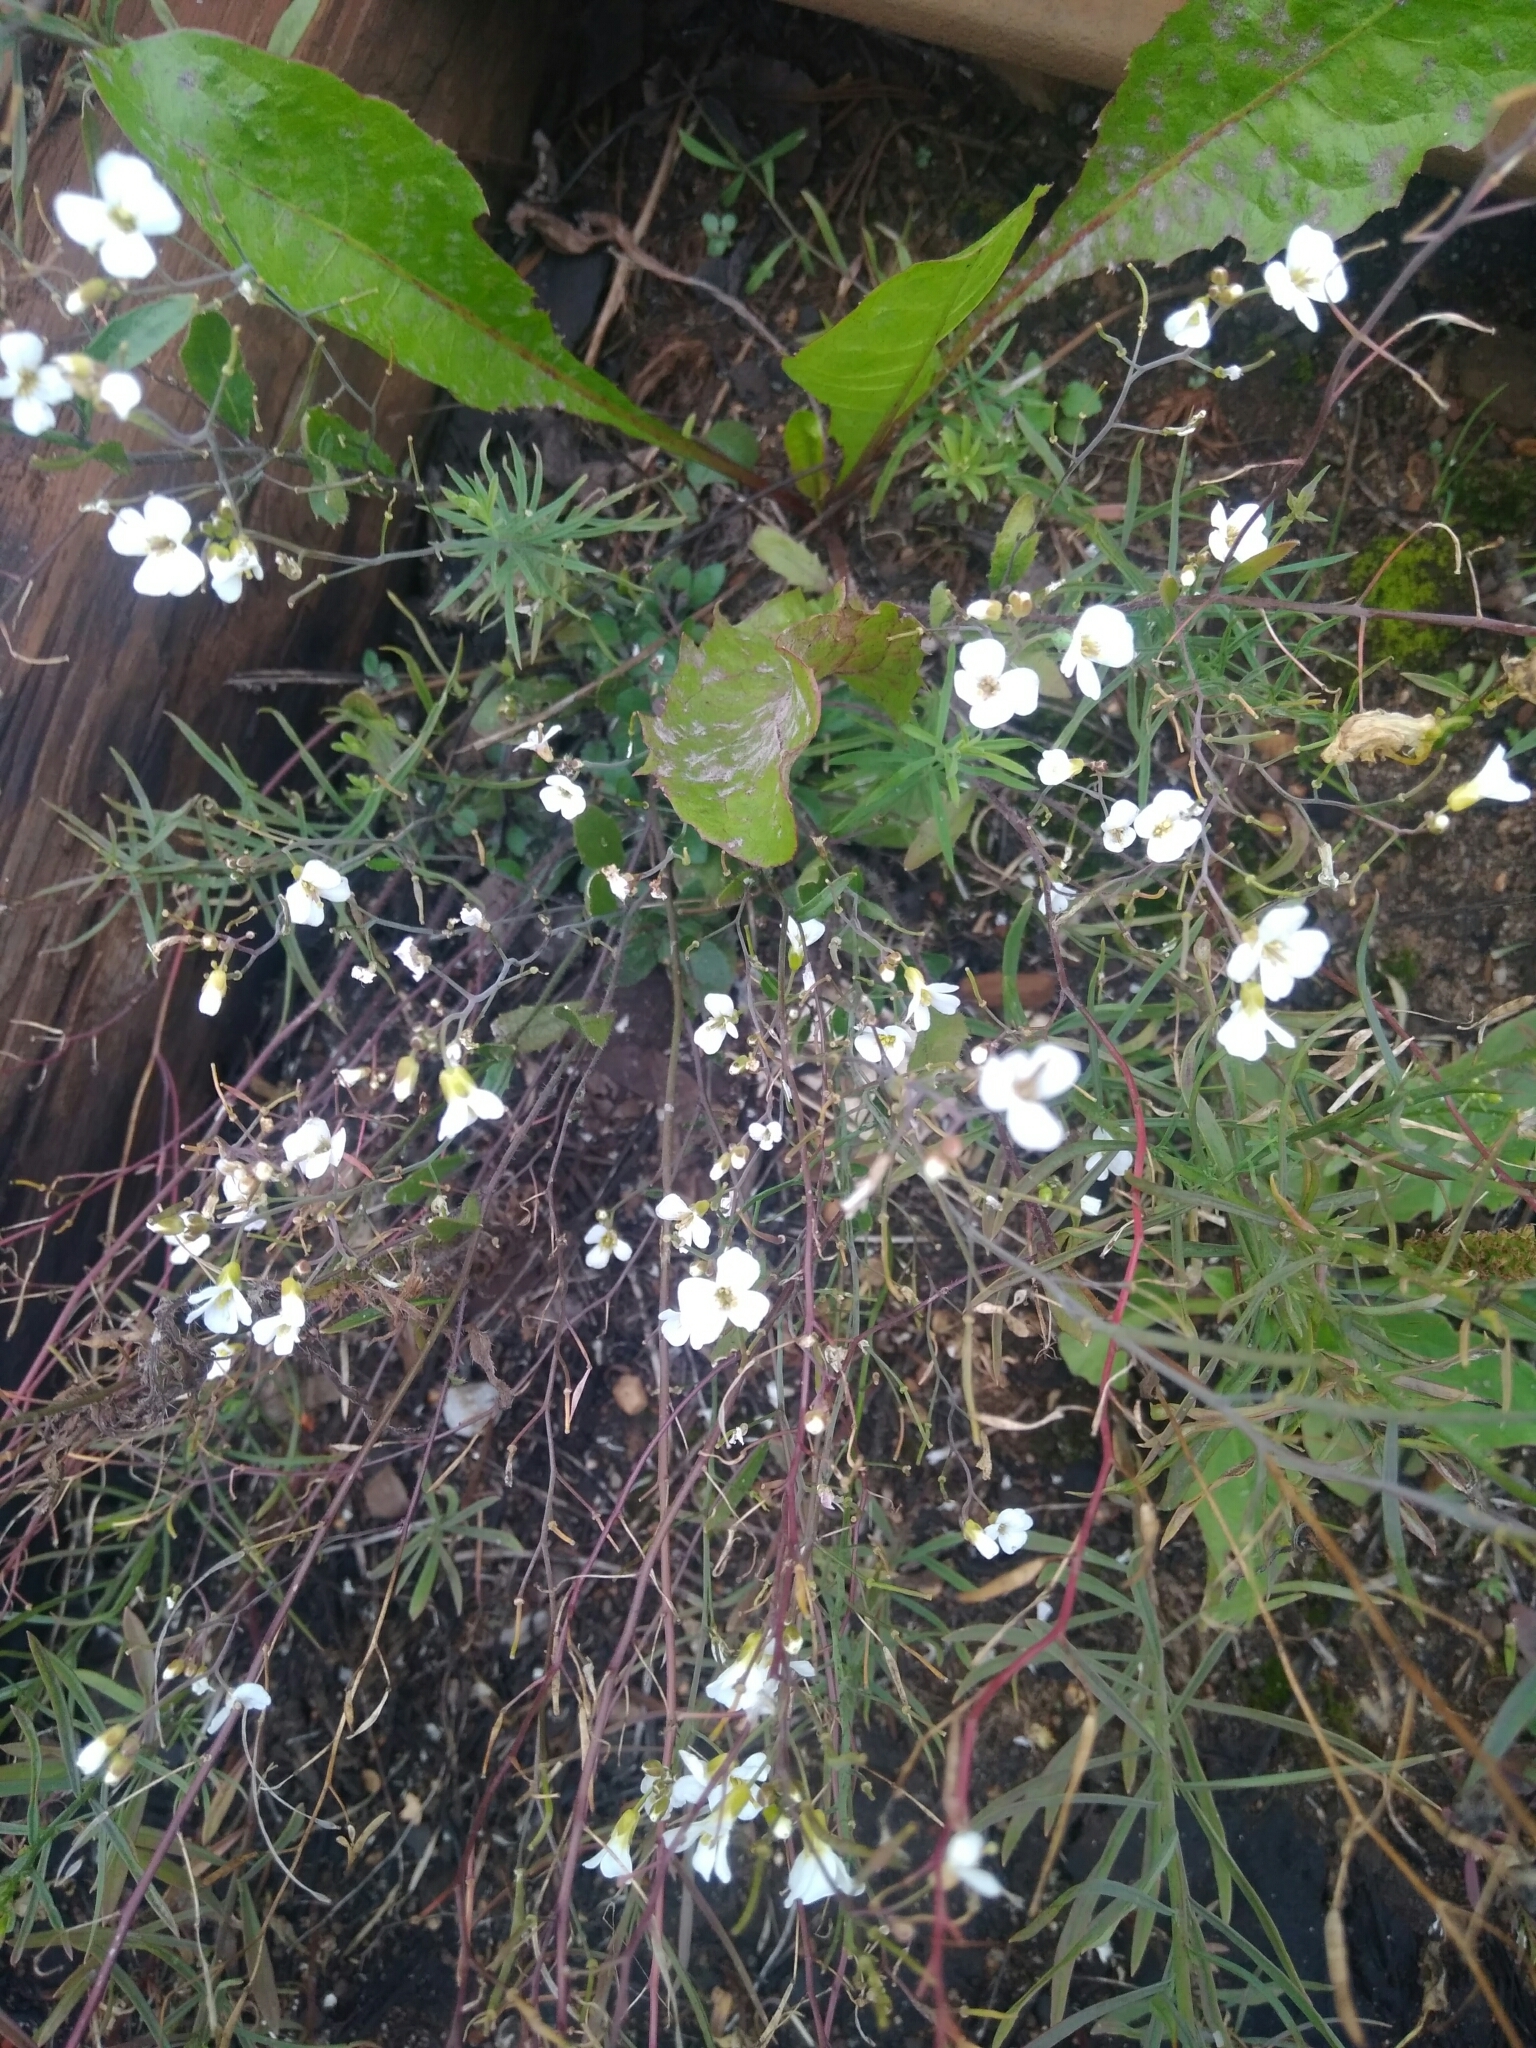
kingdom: Plantae
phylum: Tracheophyta
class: Magnoliopsida
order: Brassicales
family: Brassicaceae
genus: Arabidopsis
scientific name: Arabidopsis arenosa
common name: Sand rock-cress
